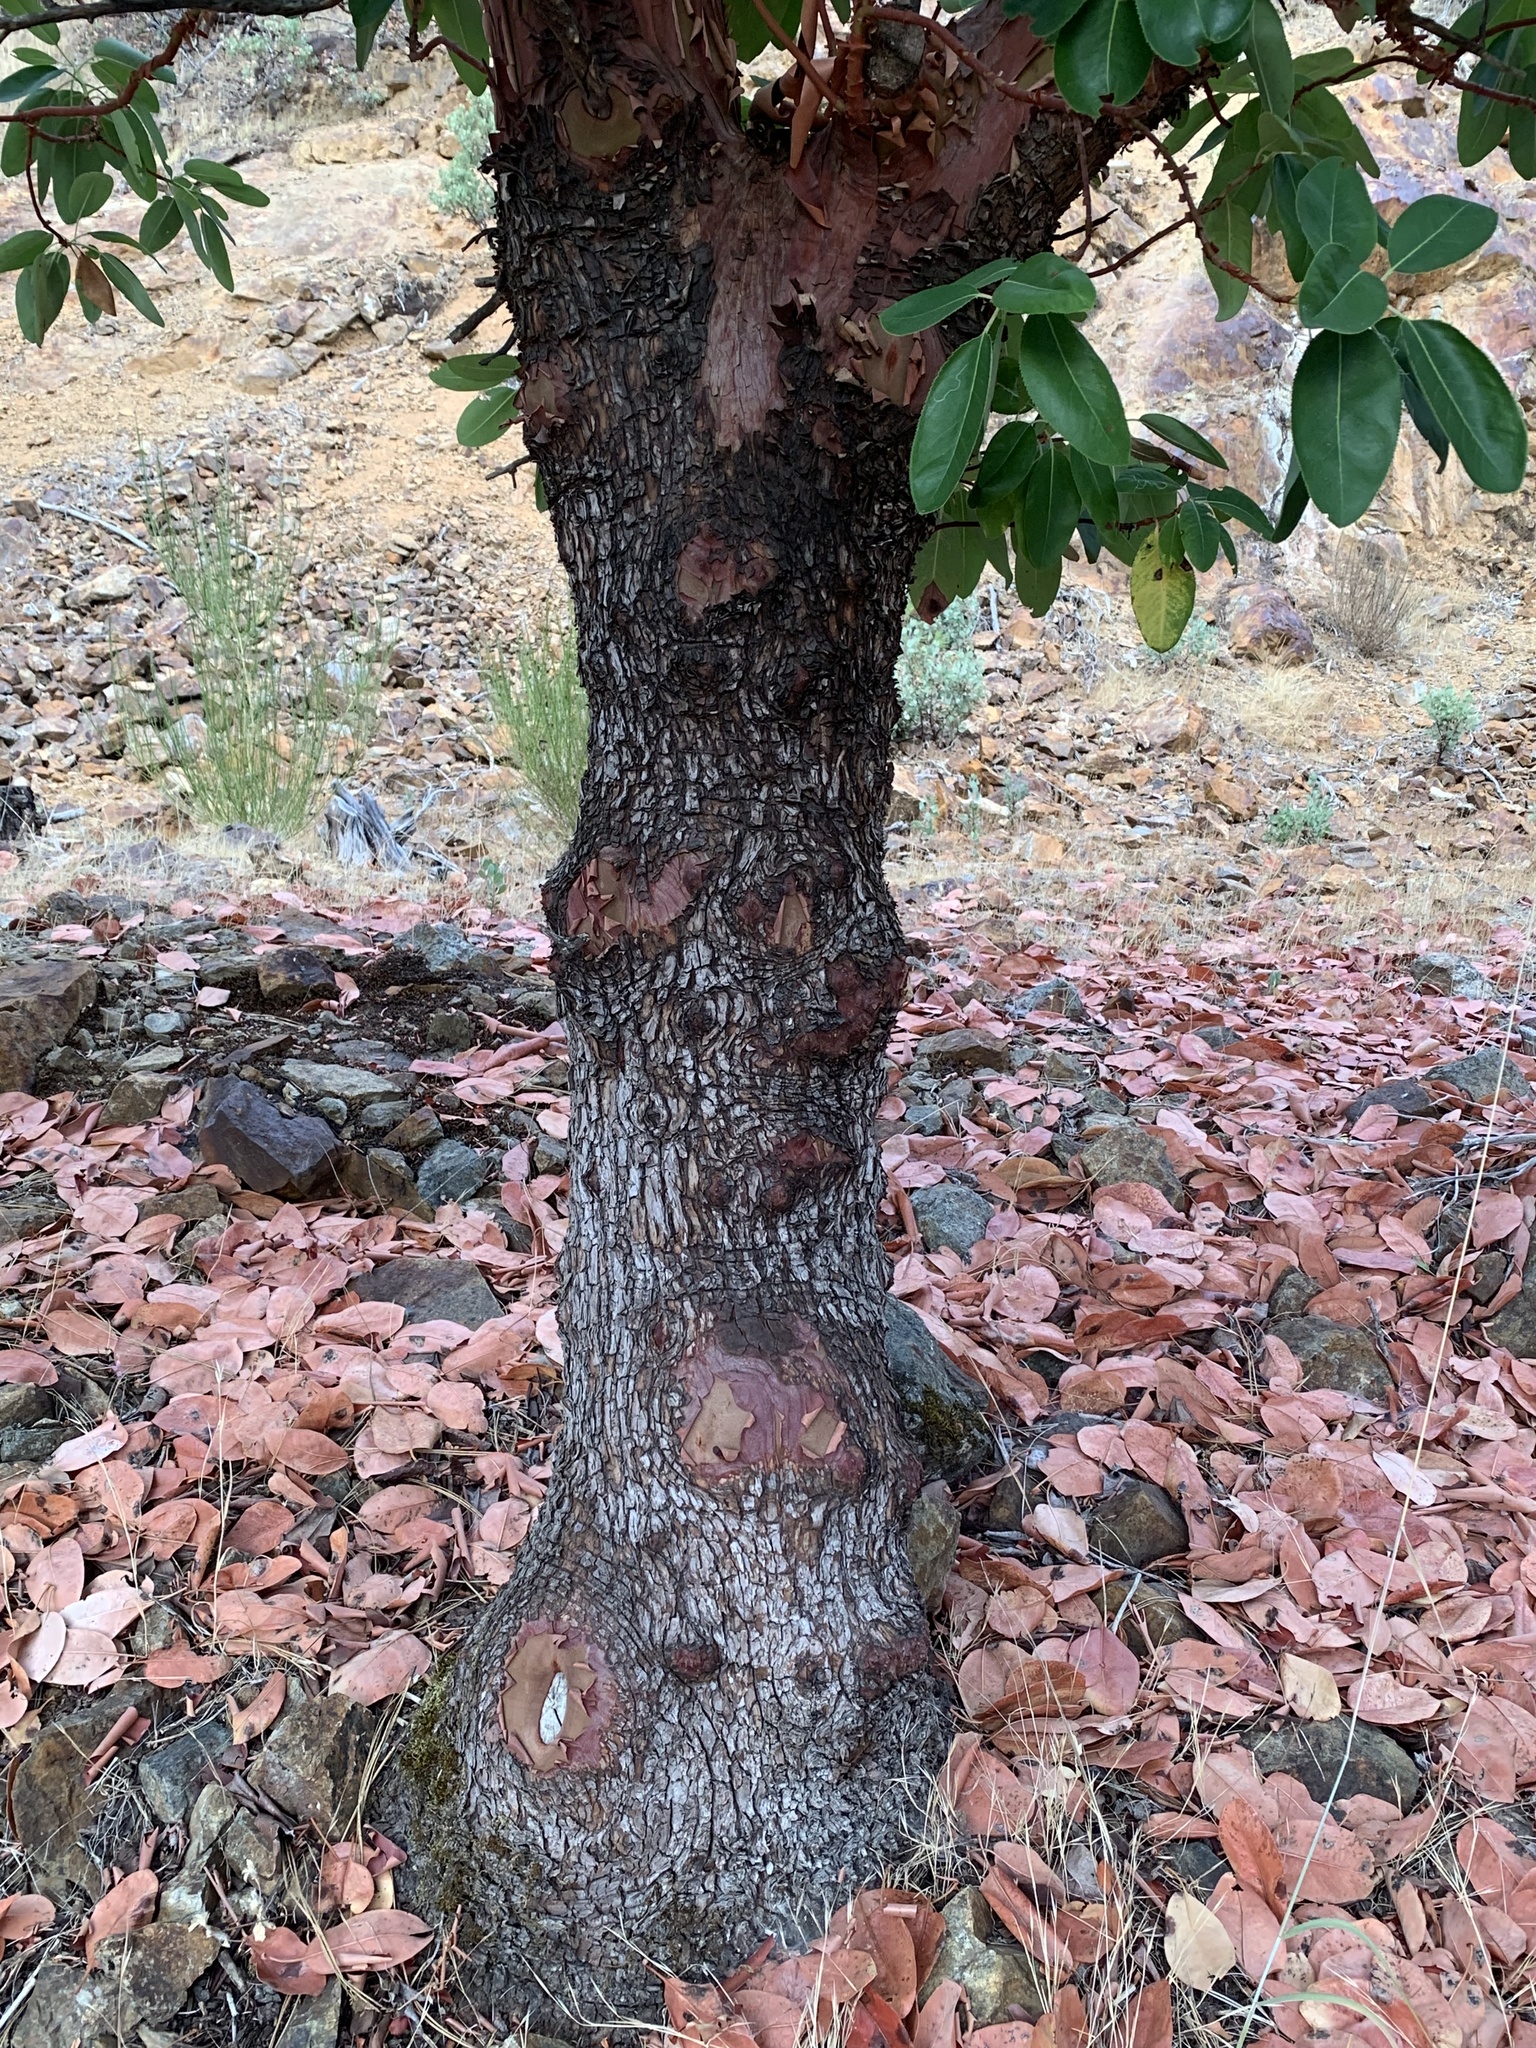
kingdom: Plantae
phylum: Tracheophyta
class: Magnoliopsida
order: Ericales
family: Ericaceae
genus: Arbutus
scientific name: Arbutus menziesii
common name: Pacific madrone
